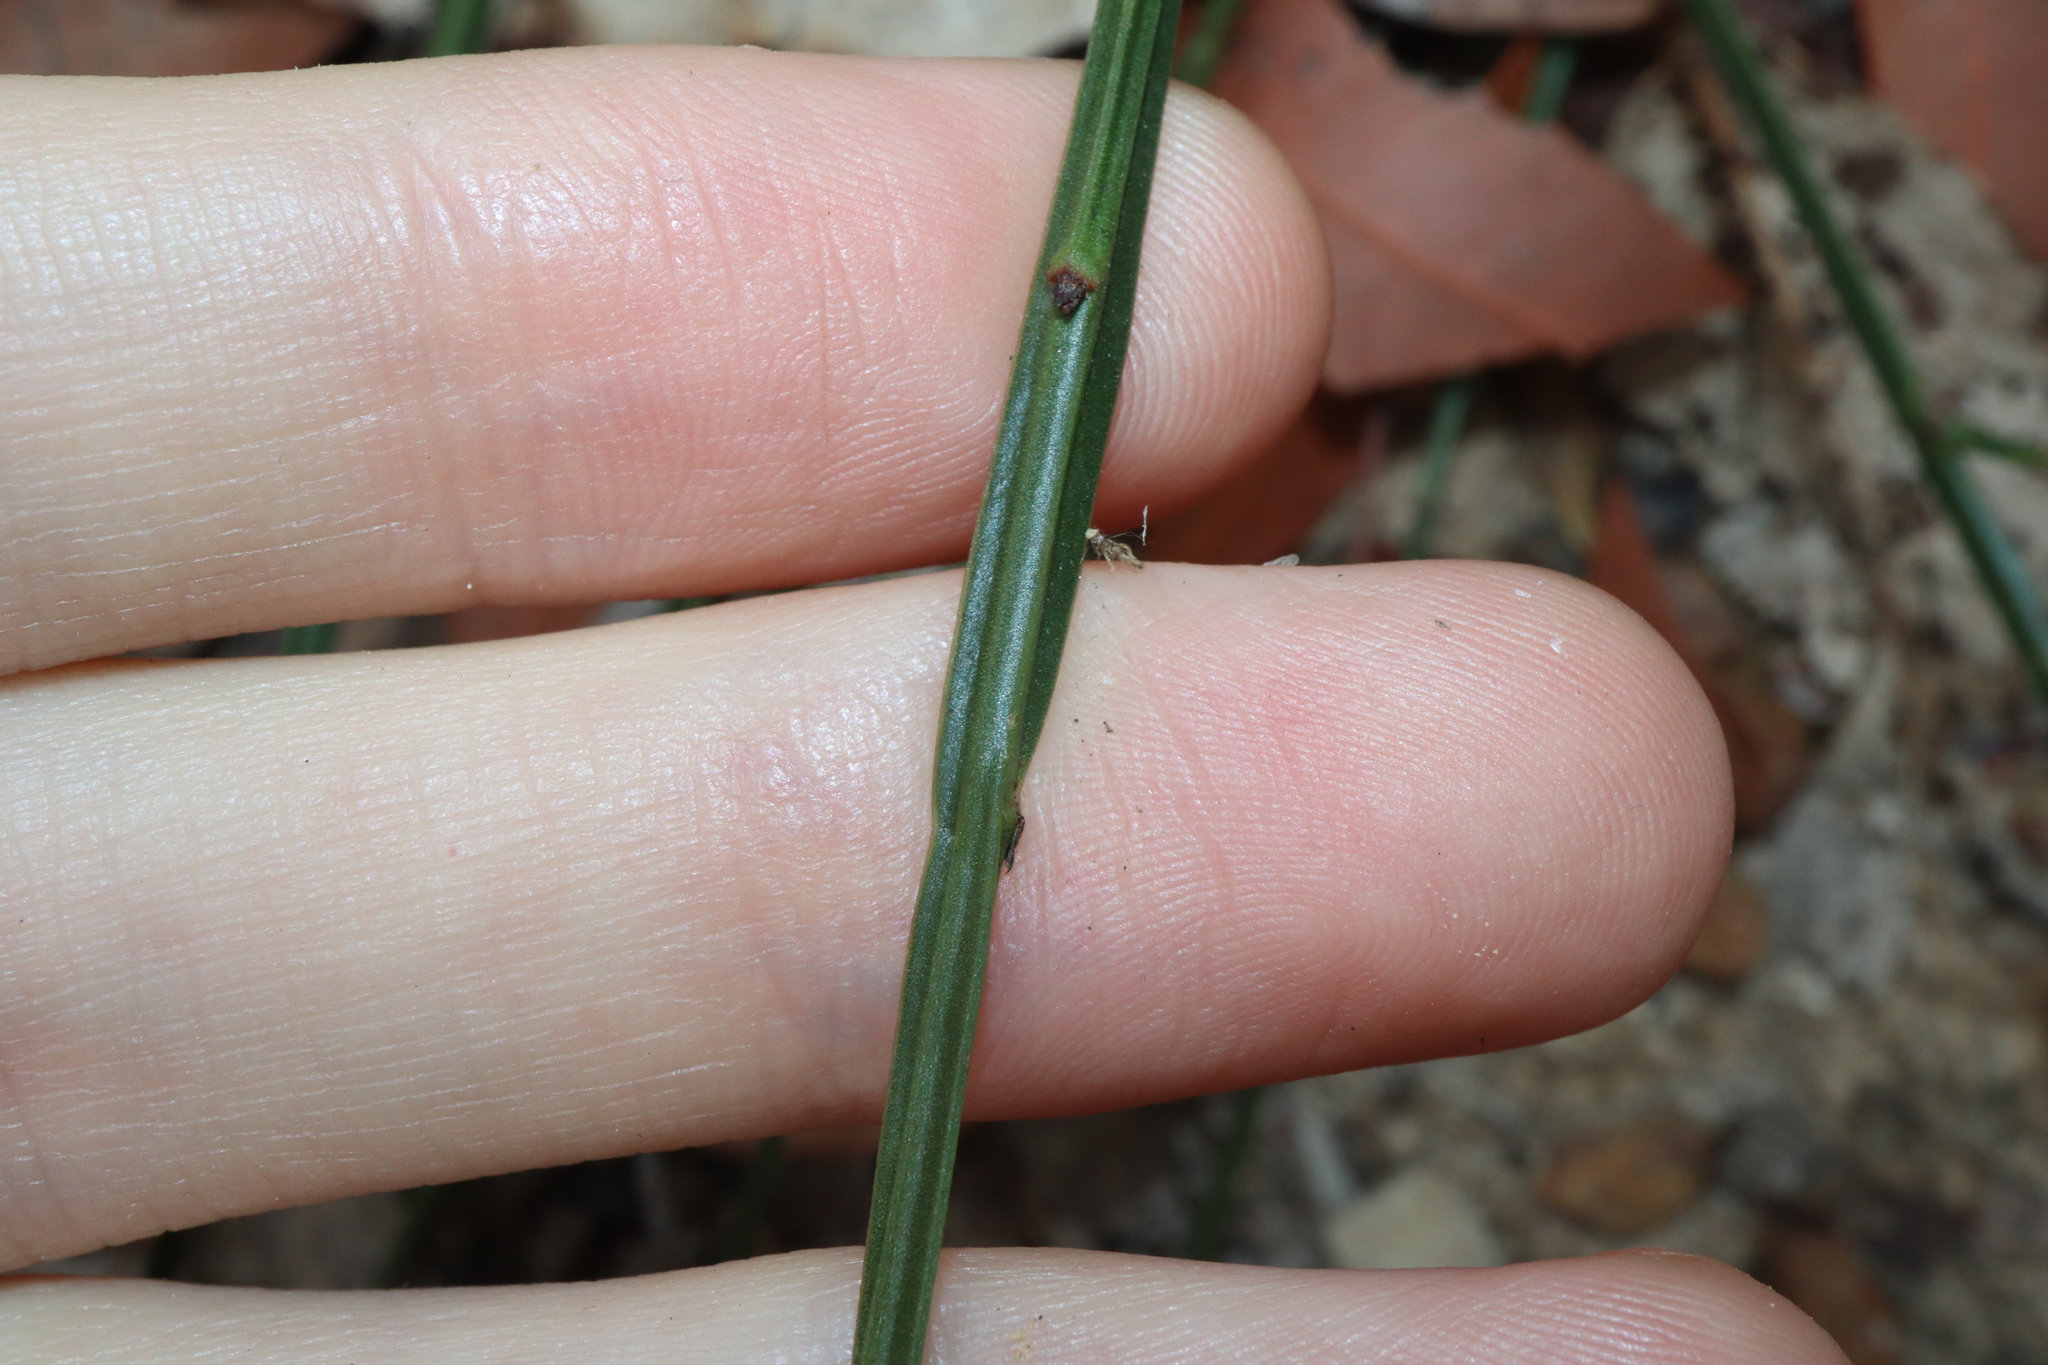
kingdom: Plantae
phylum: Tracheophyta
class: Magnoliopsida
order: Fabales
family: Fabaceae
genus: Daviesia
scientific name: Daviesia alata
